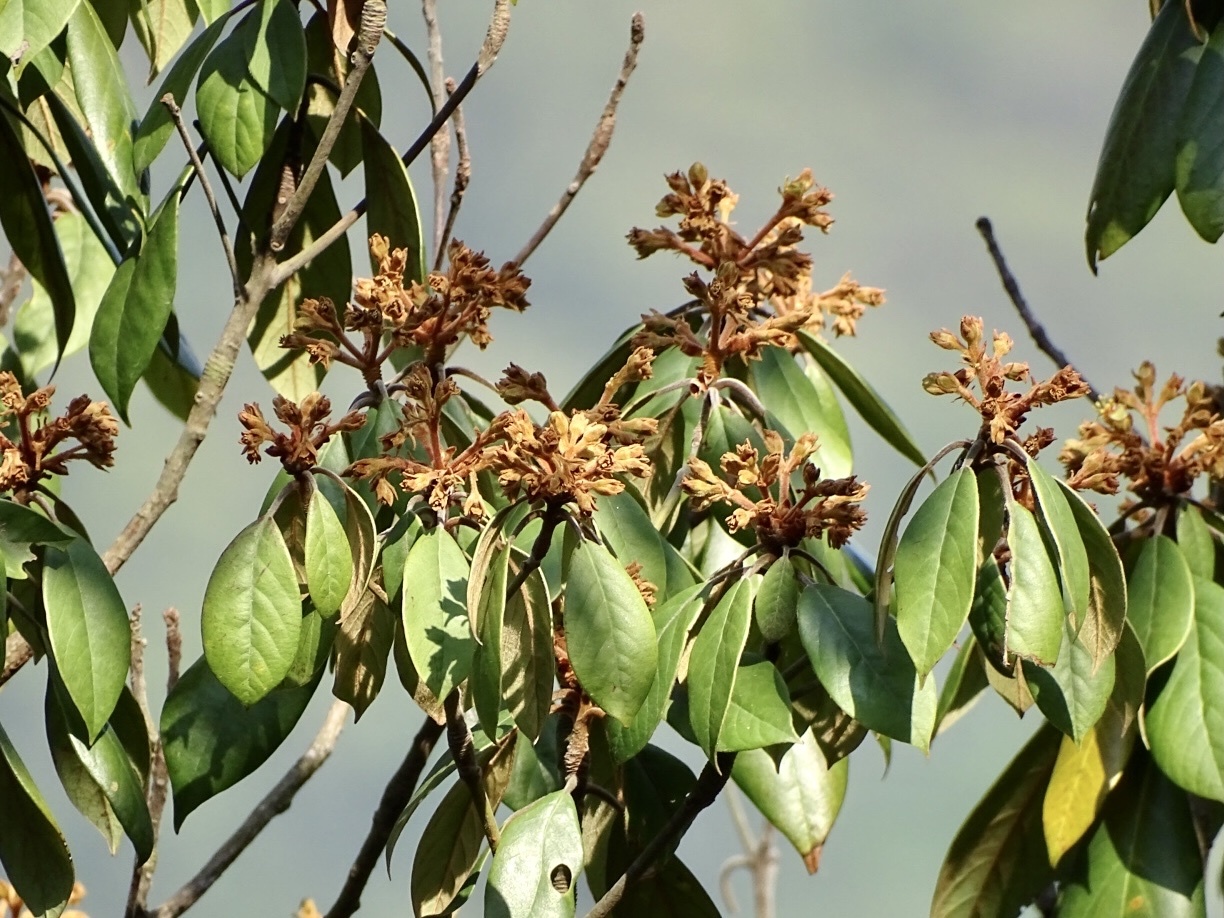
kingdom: Plantae
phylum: Tracheophyta
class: Magnoliopsida
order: Laurales
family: Lauraceae
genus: Machilus
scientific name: Machilus velutina
